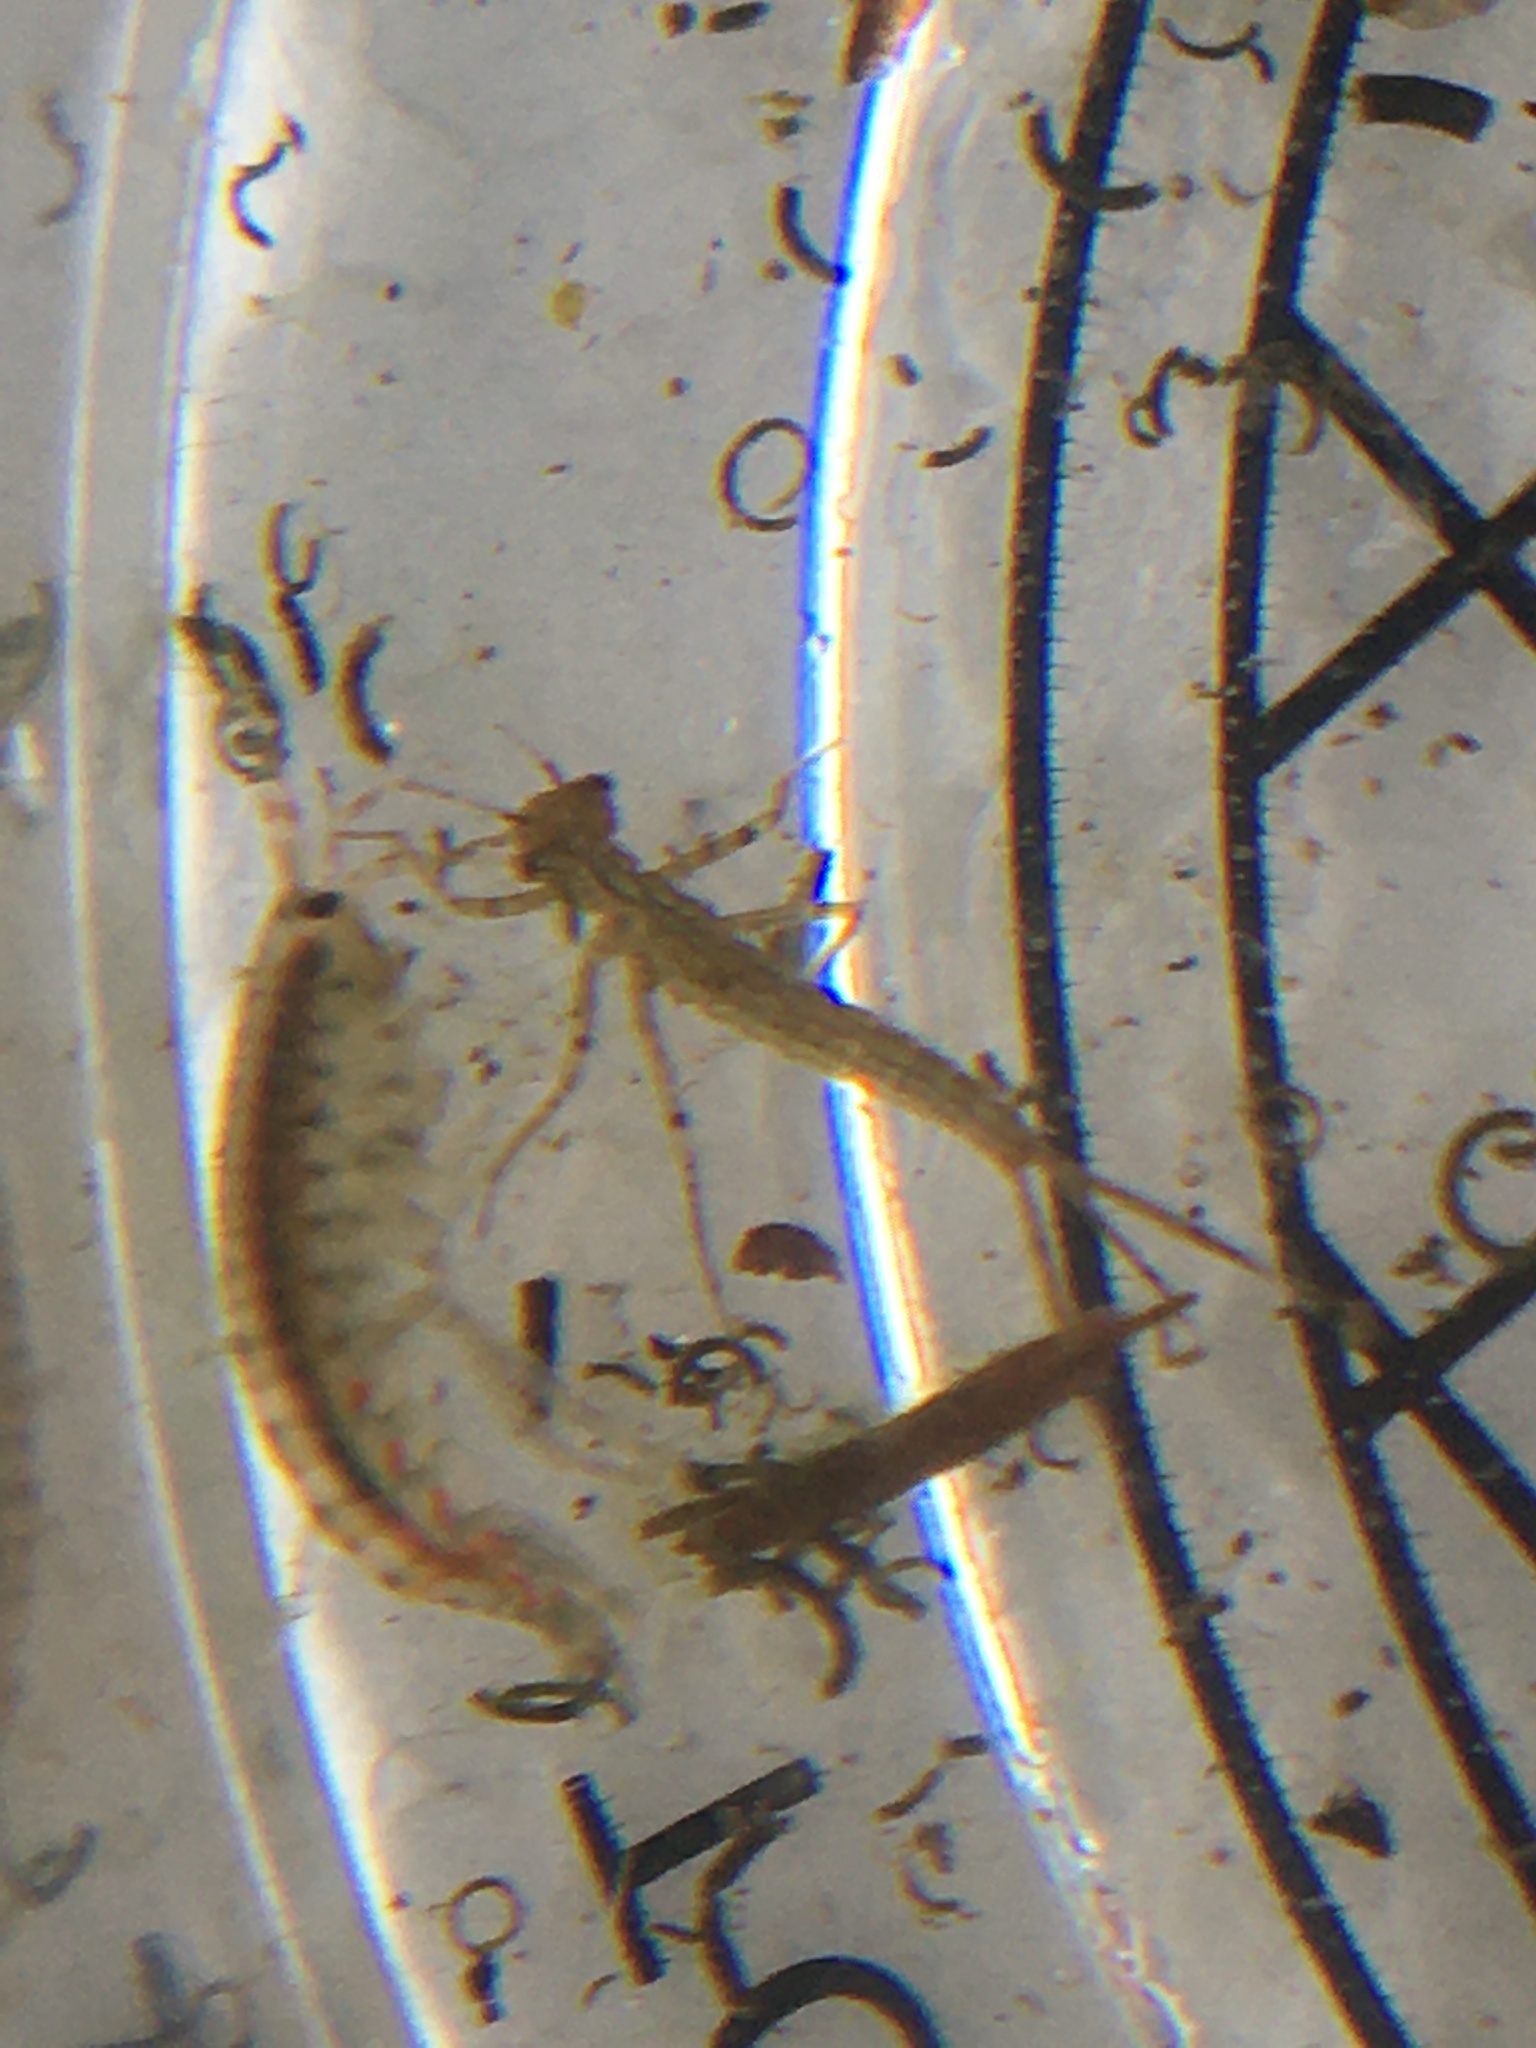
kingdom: Animalia
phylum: Arthropoda
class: Malacostraca
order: Amphipoda
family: Gammaridae
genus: Gammarus
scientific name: Gammarus fasciatus
